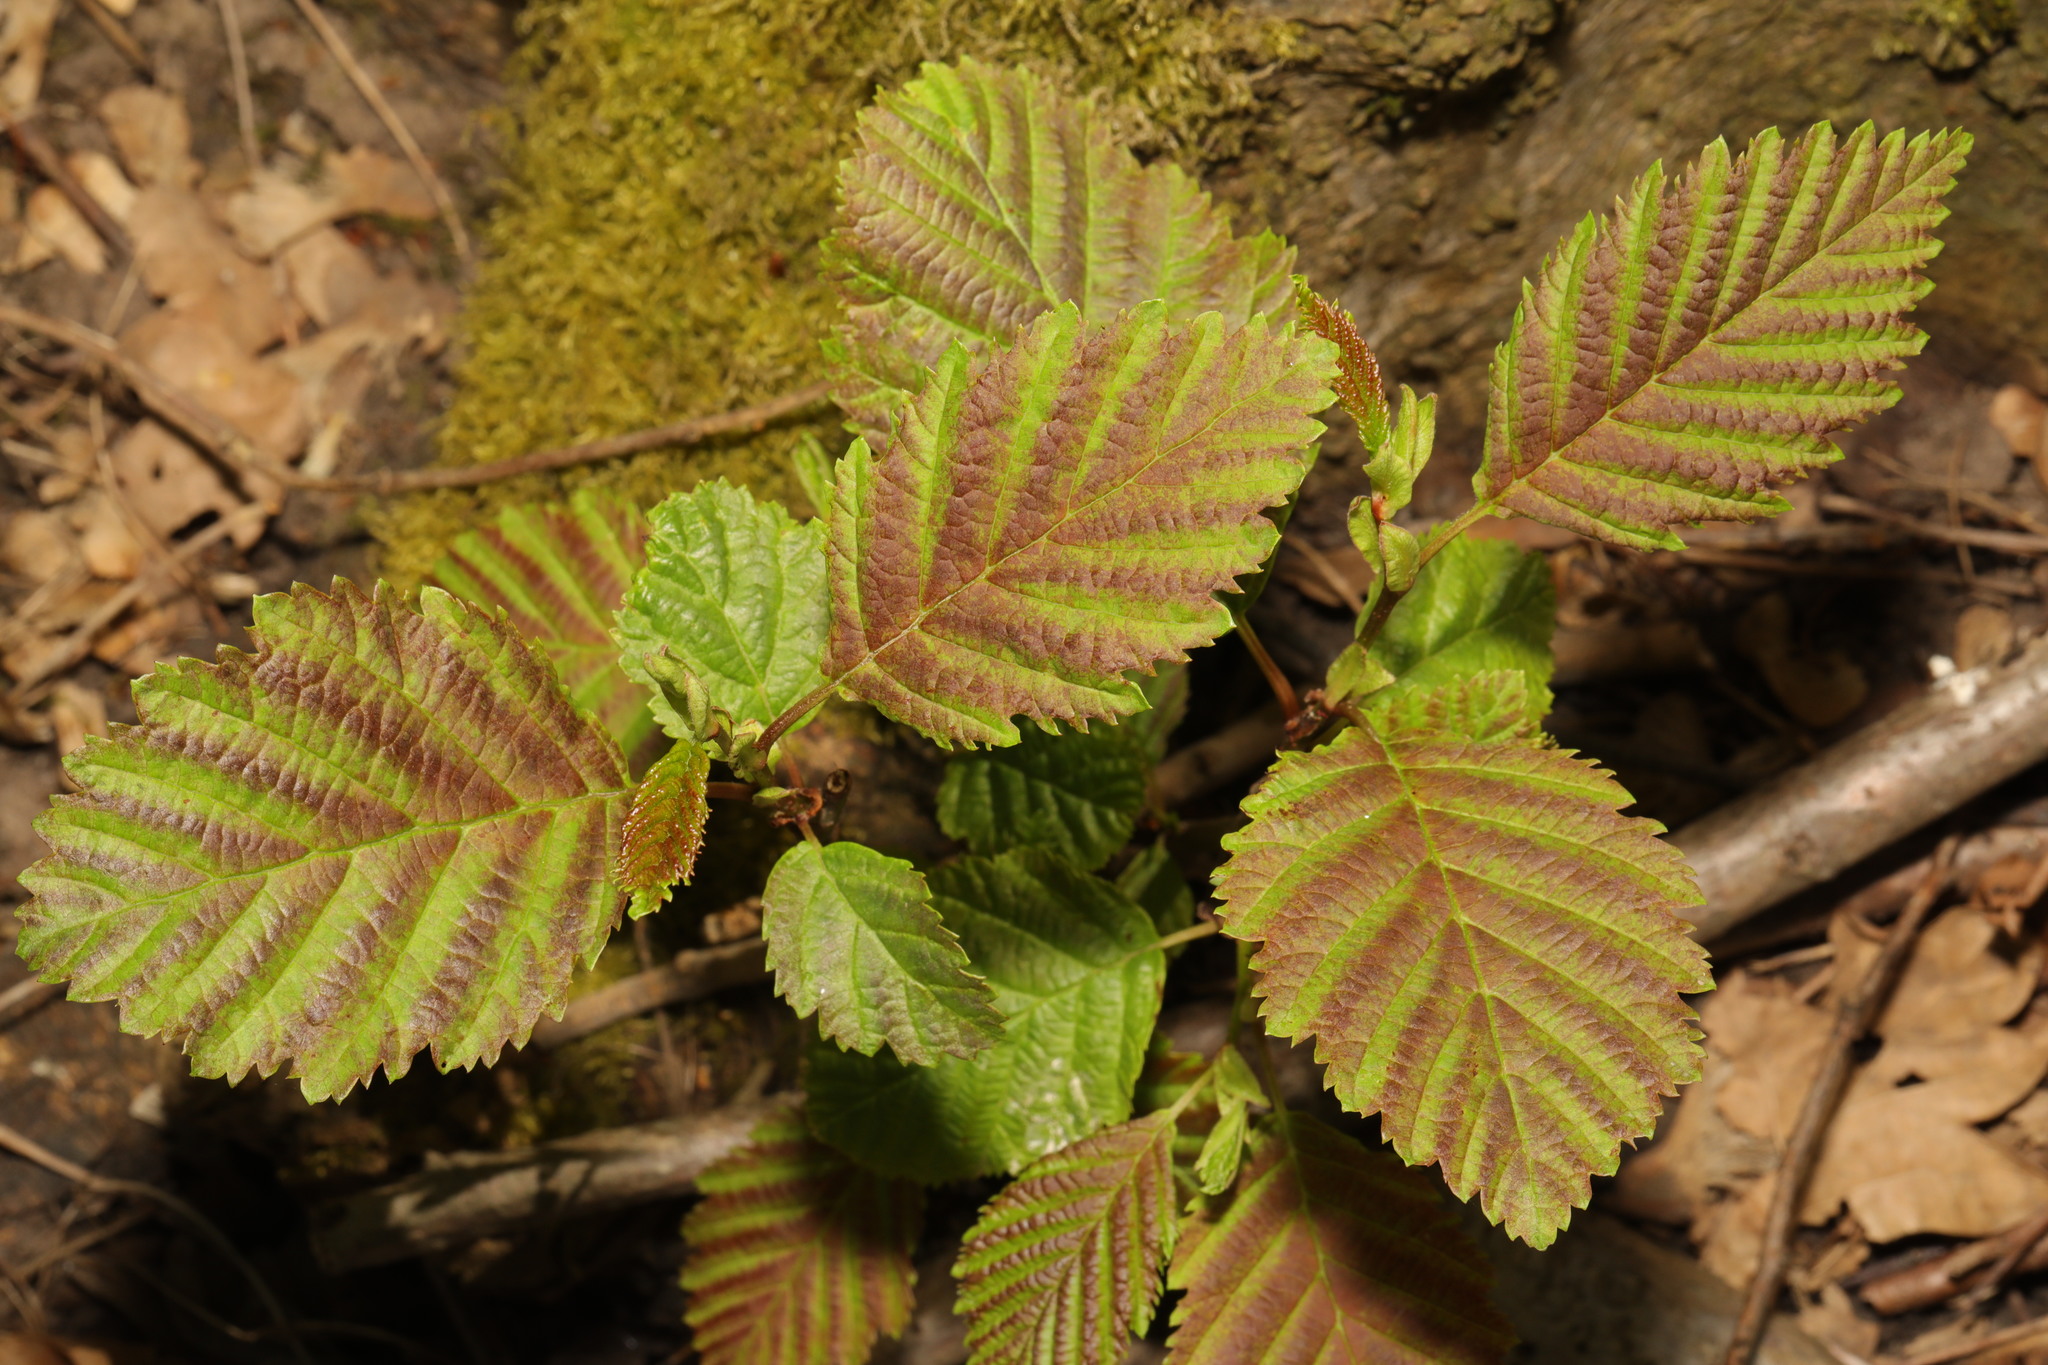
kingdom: Plantae
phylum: Tracheophyta
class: Magnoliopsida
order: Fagales
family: Betulaceae
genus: Alnus
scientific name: Alnus incana
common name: Grey alder
